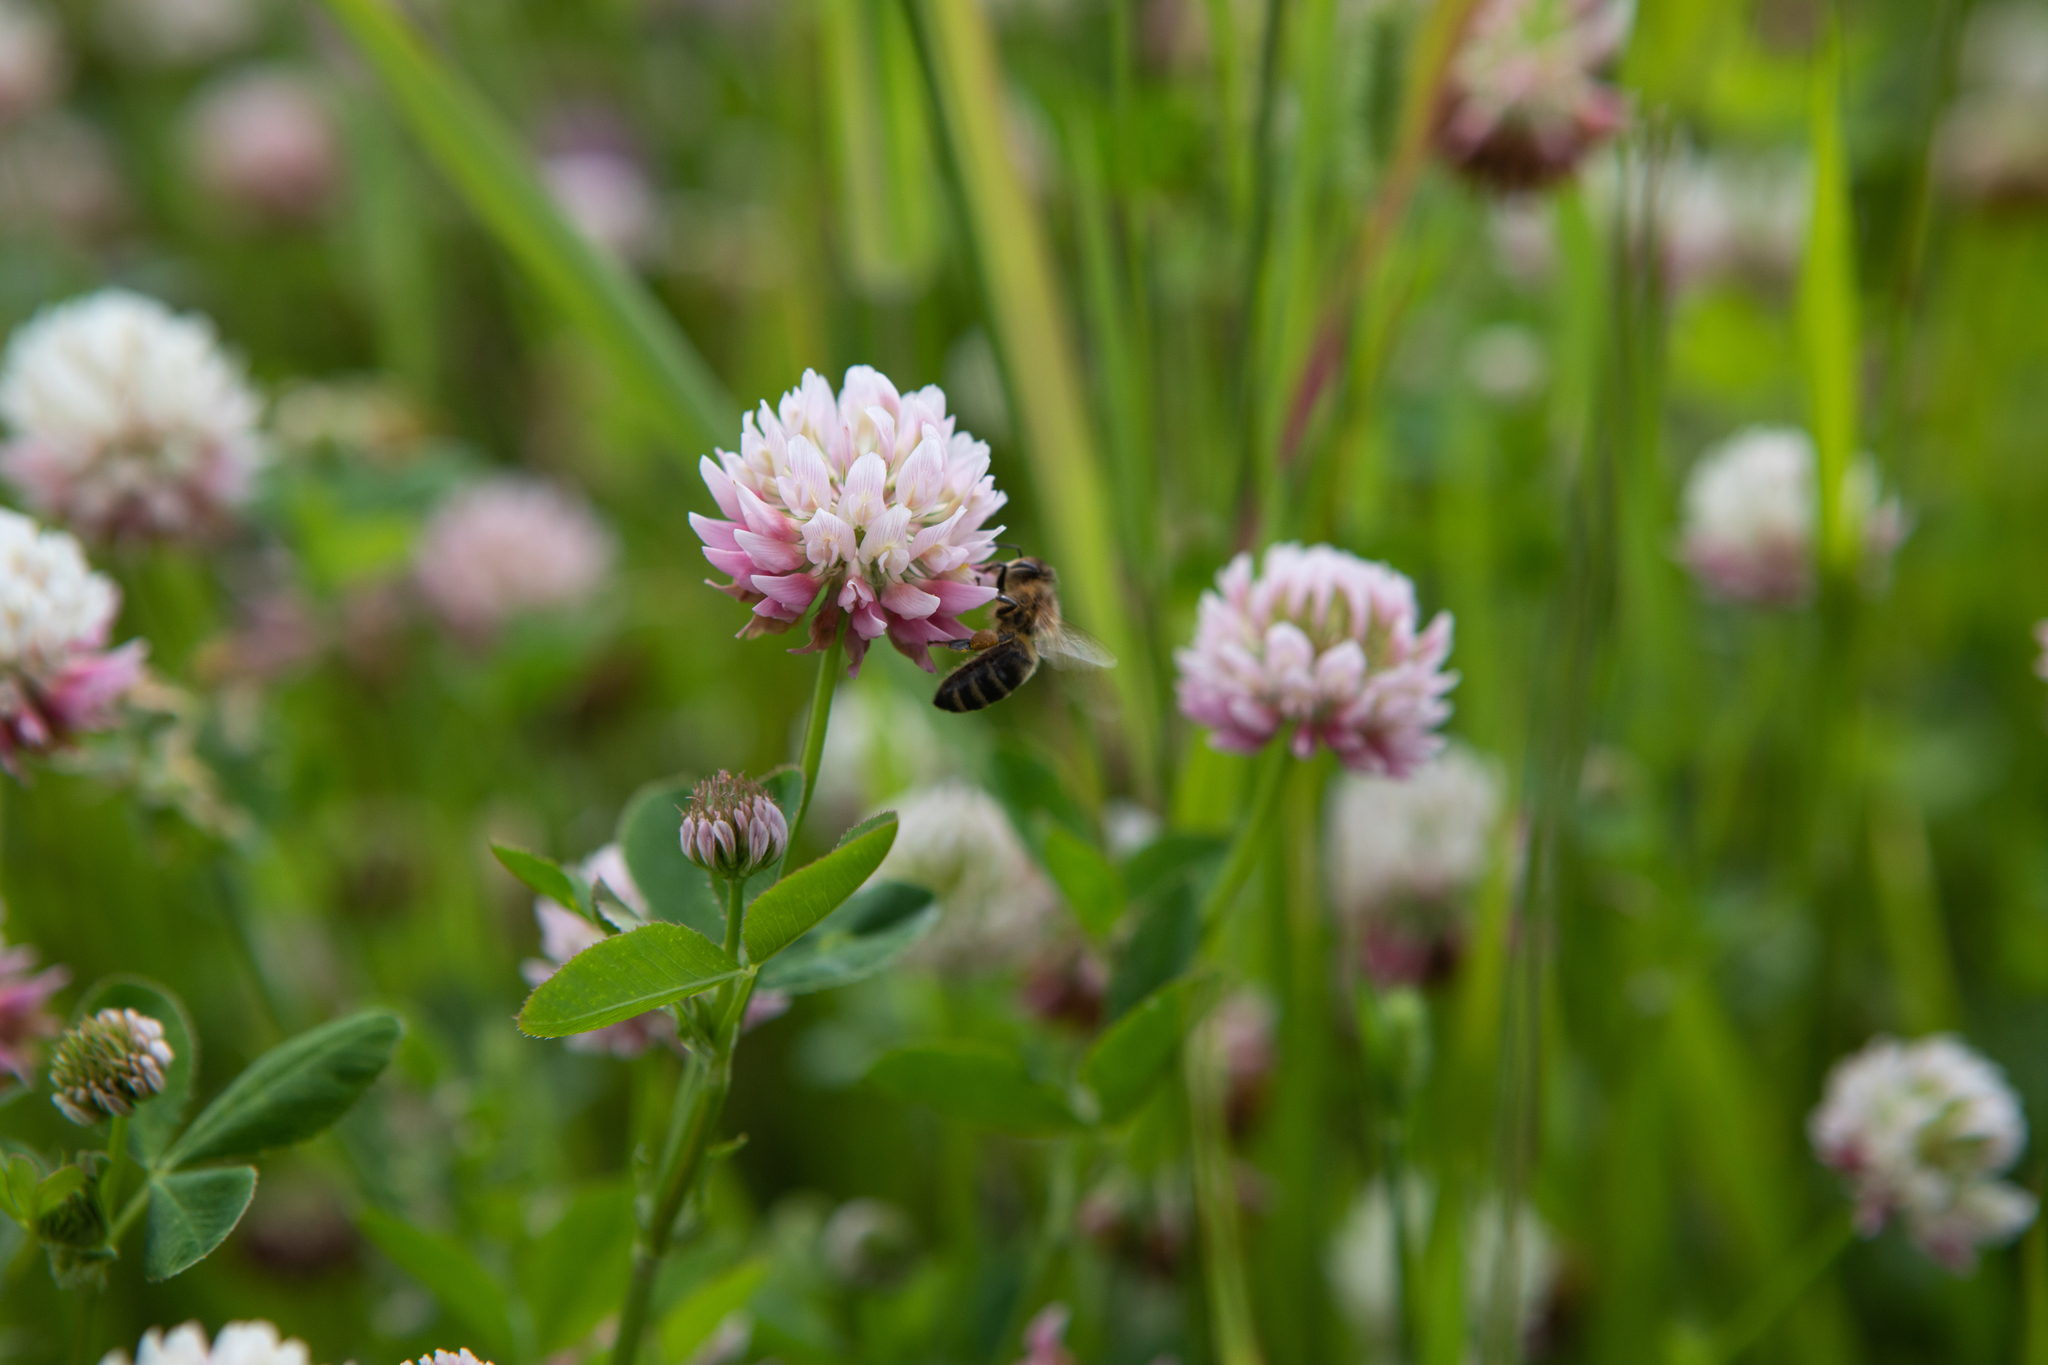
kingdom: Plantae
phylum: Tracheophyta
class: Magnoliopsida
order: Fabales
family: Fabaceae
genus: Trifolium
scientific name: Trifolium hybridum
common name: Alsike clover
